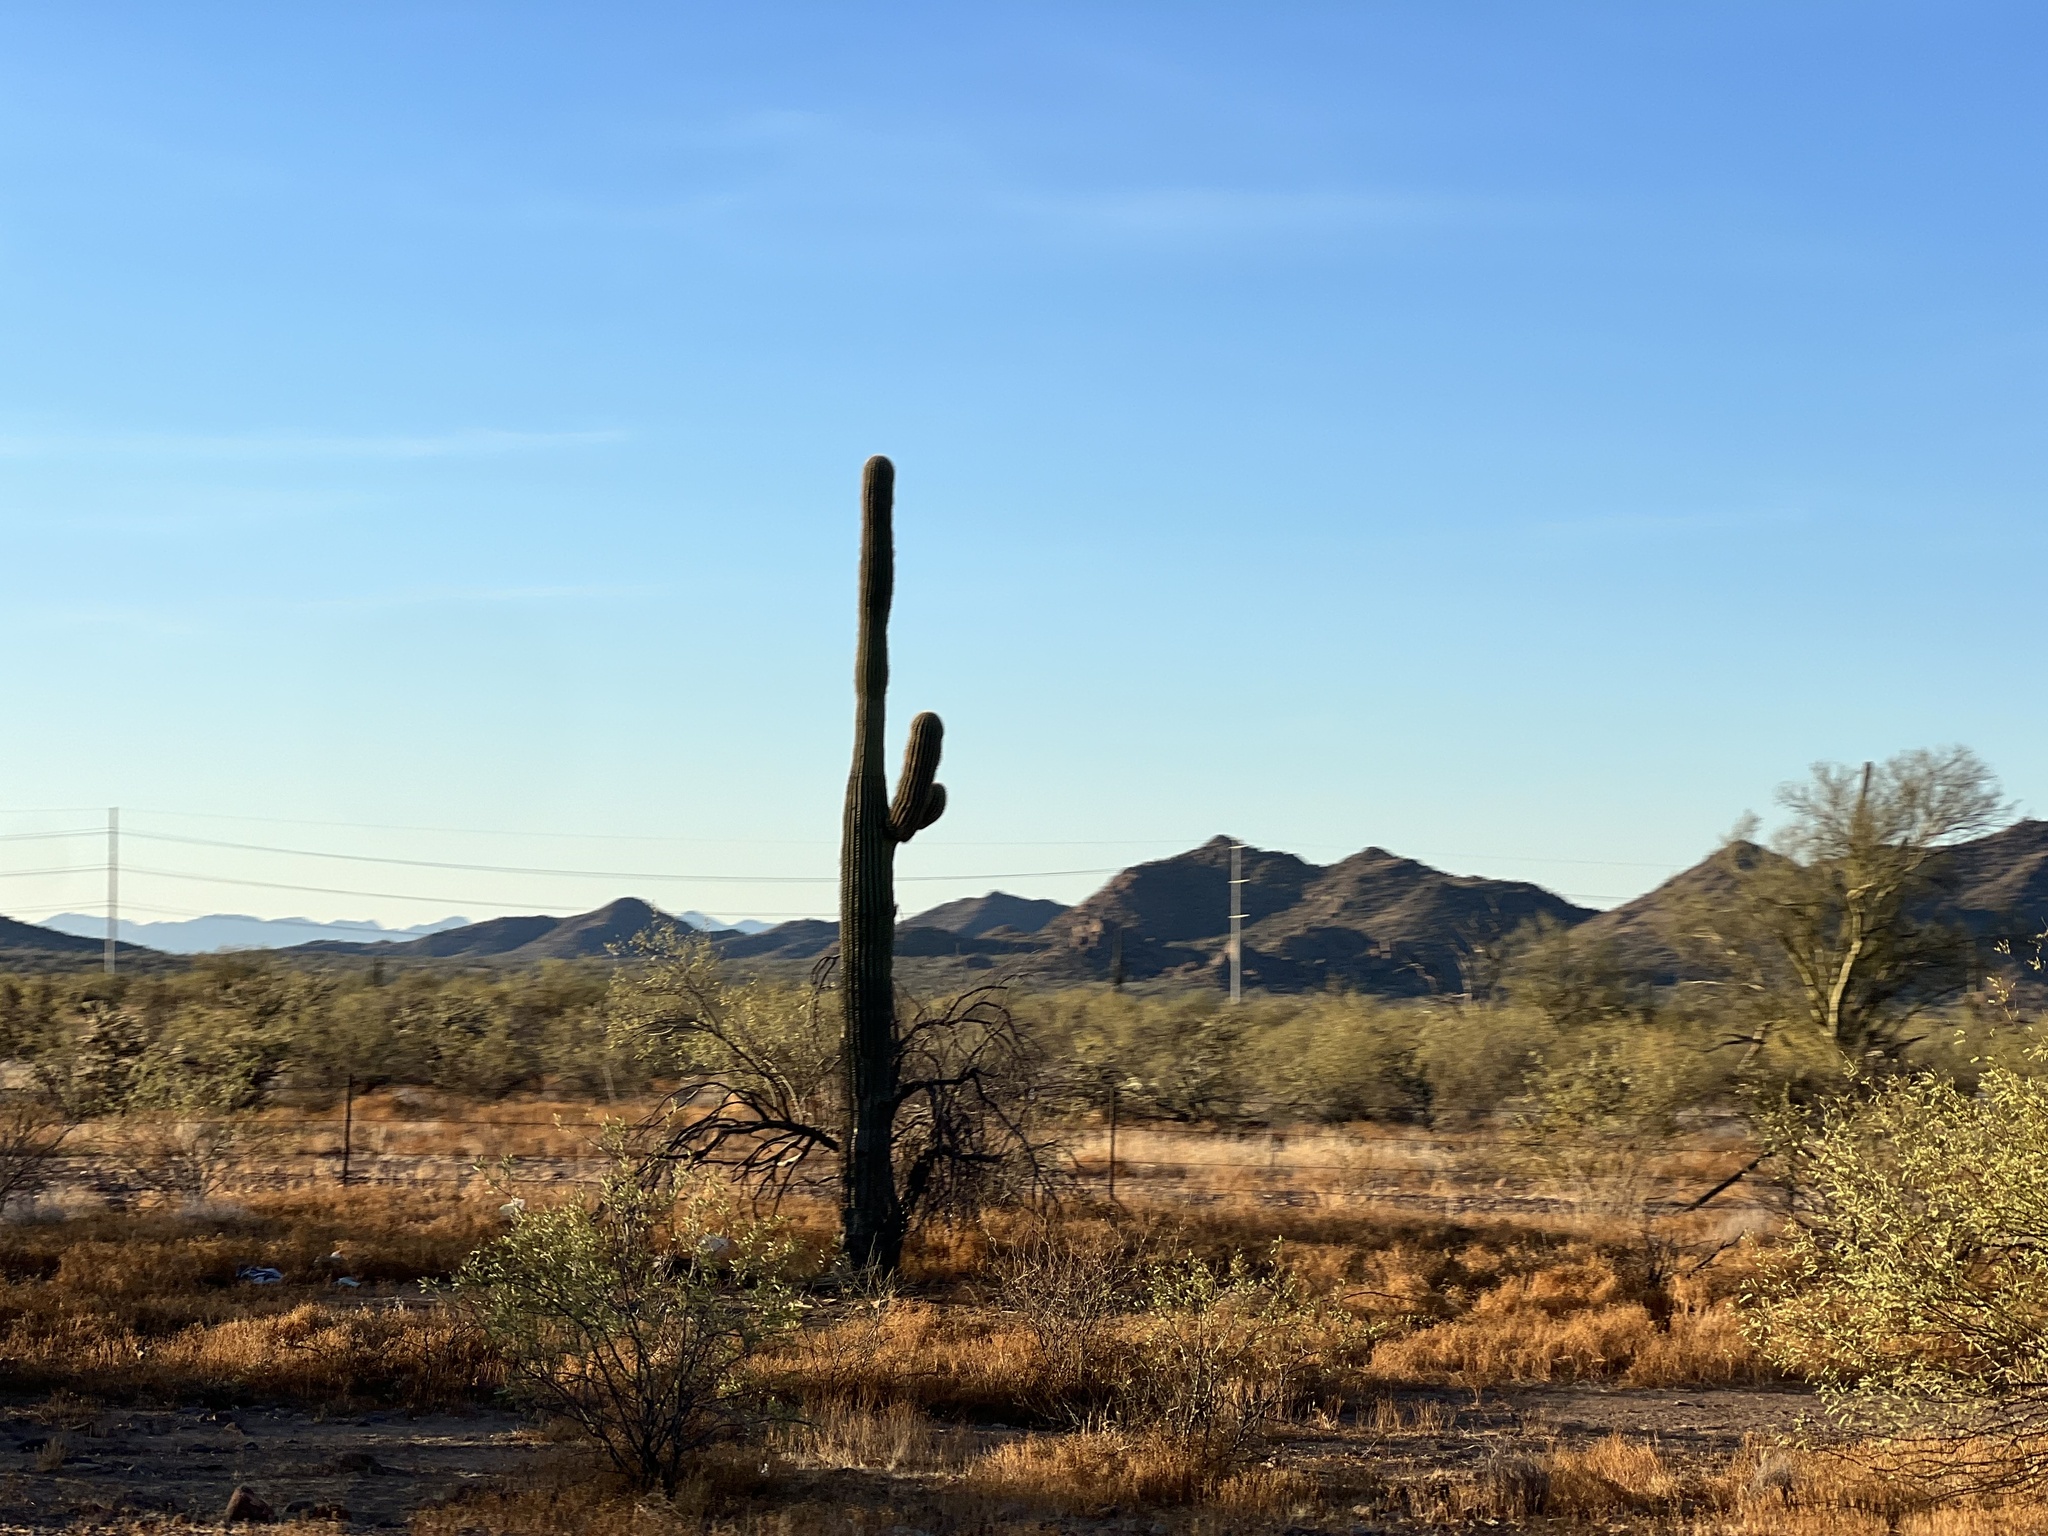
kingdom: Plantae
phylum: Tracheophyta
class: Magnoliopsida
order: Caryophyllales
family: Cactaceae
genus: Carnegiea
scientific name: Carnegiea gigantea
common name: Saguaro
